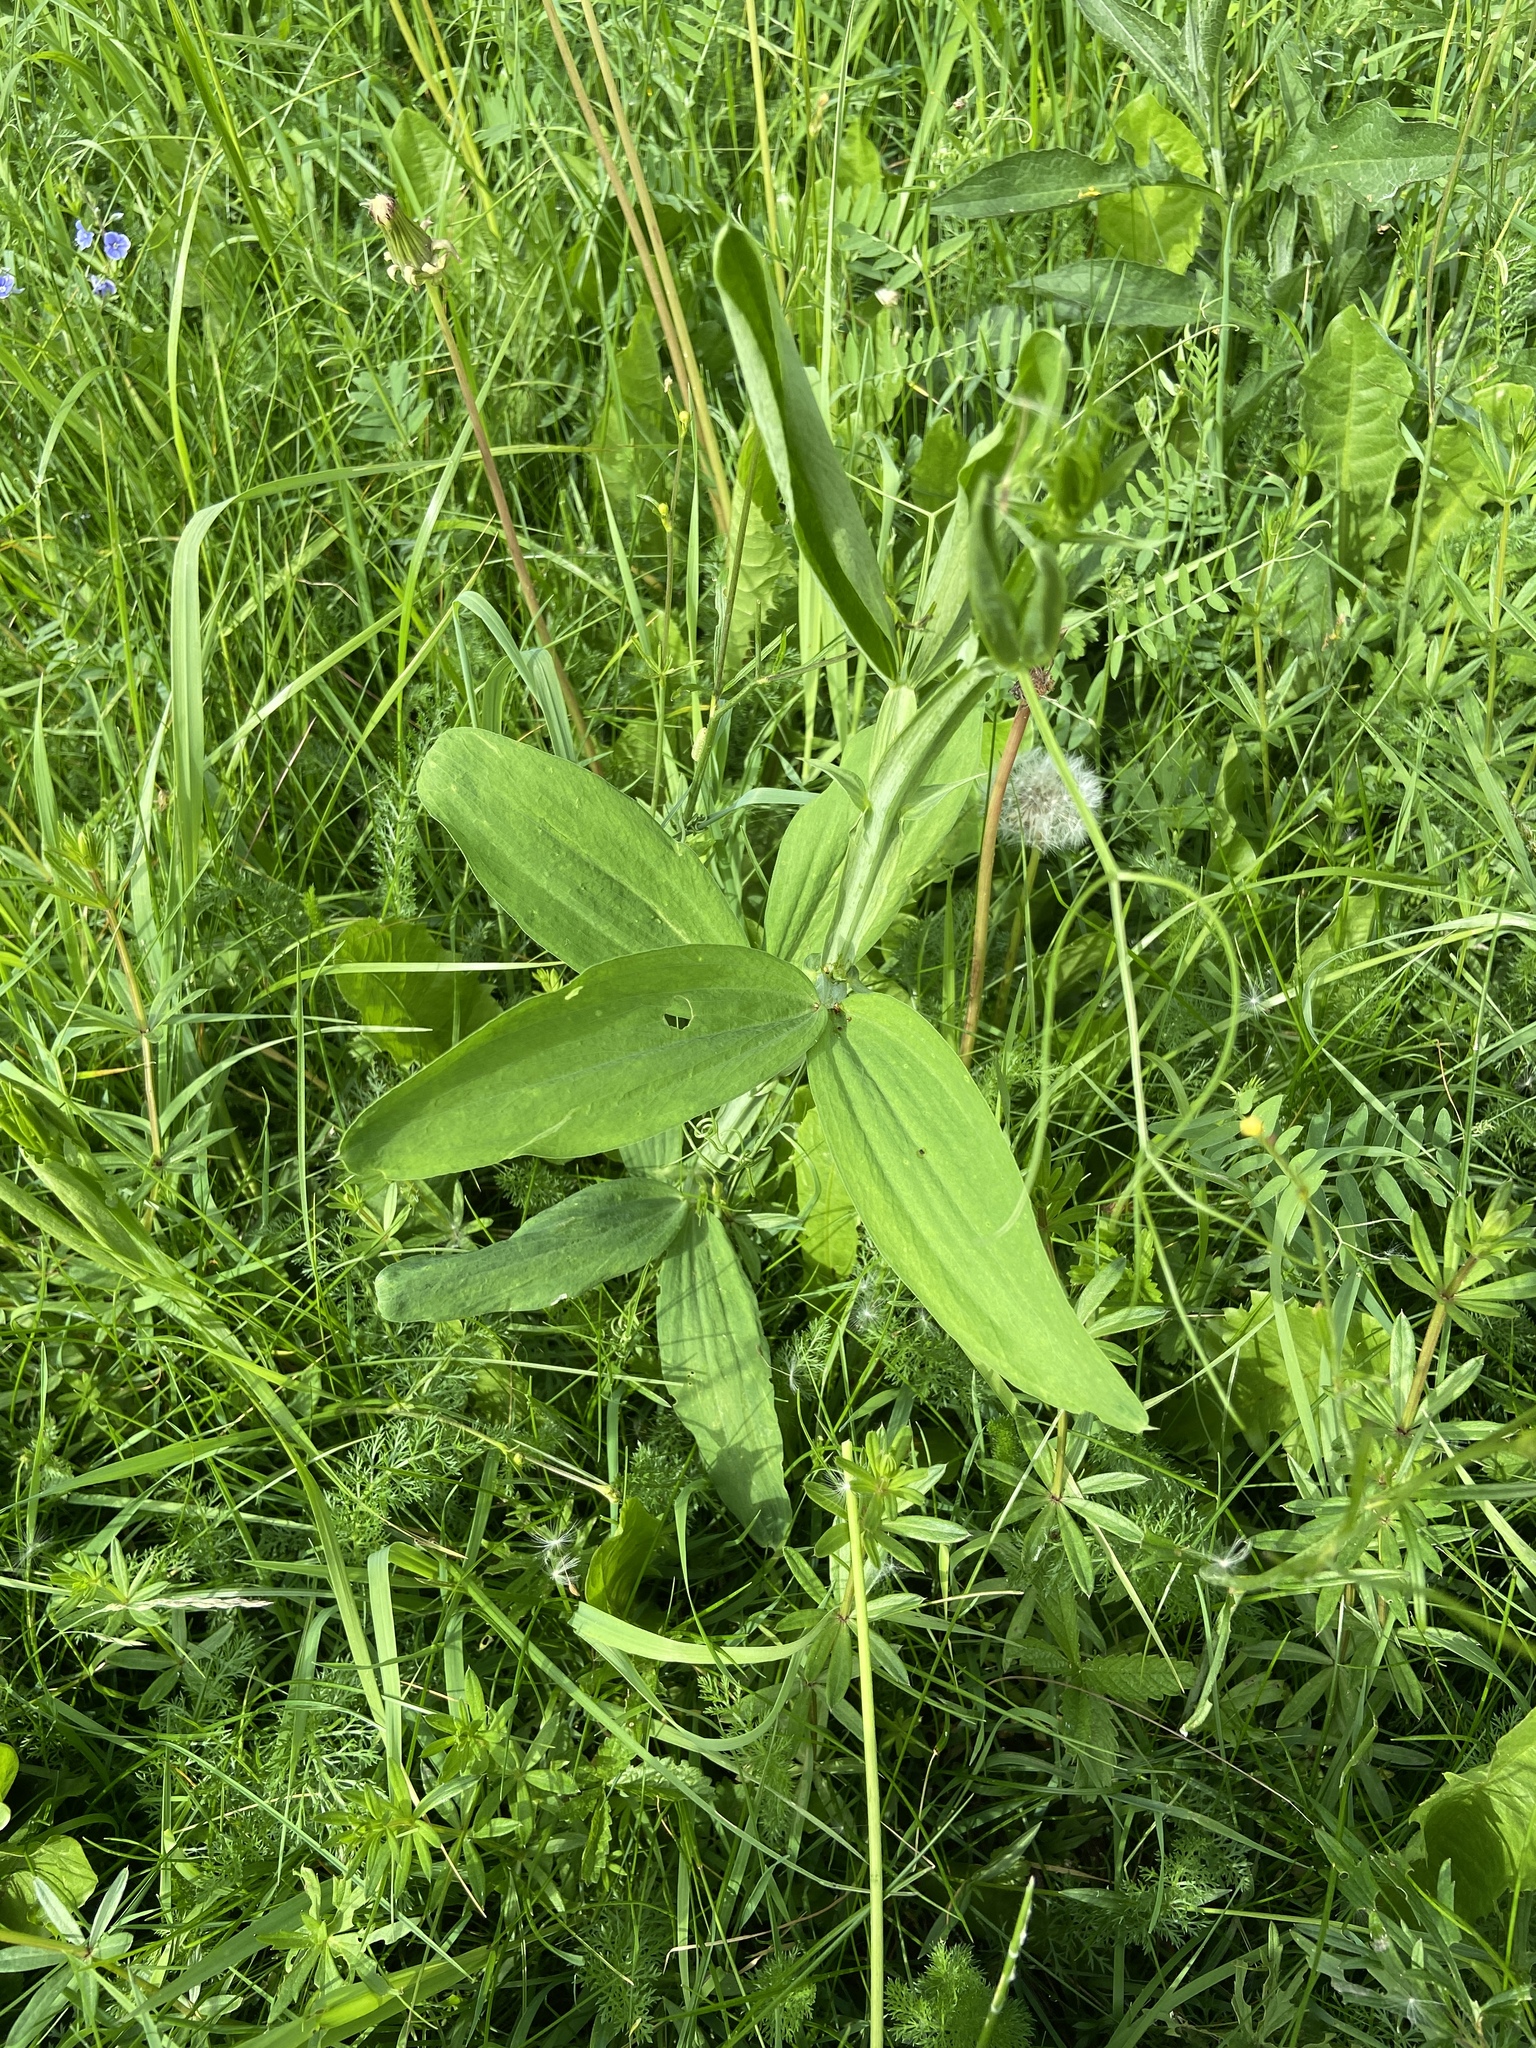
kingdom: Plantae
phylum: Tracheophyta
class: Magnoliopsida
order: Fabales
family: Fabaceae
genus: Lathyrus
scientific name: Lathyrus sylvestris
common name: Flat pea
